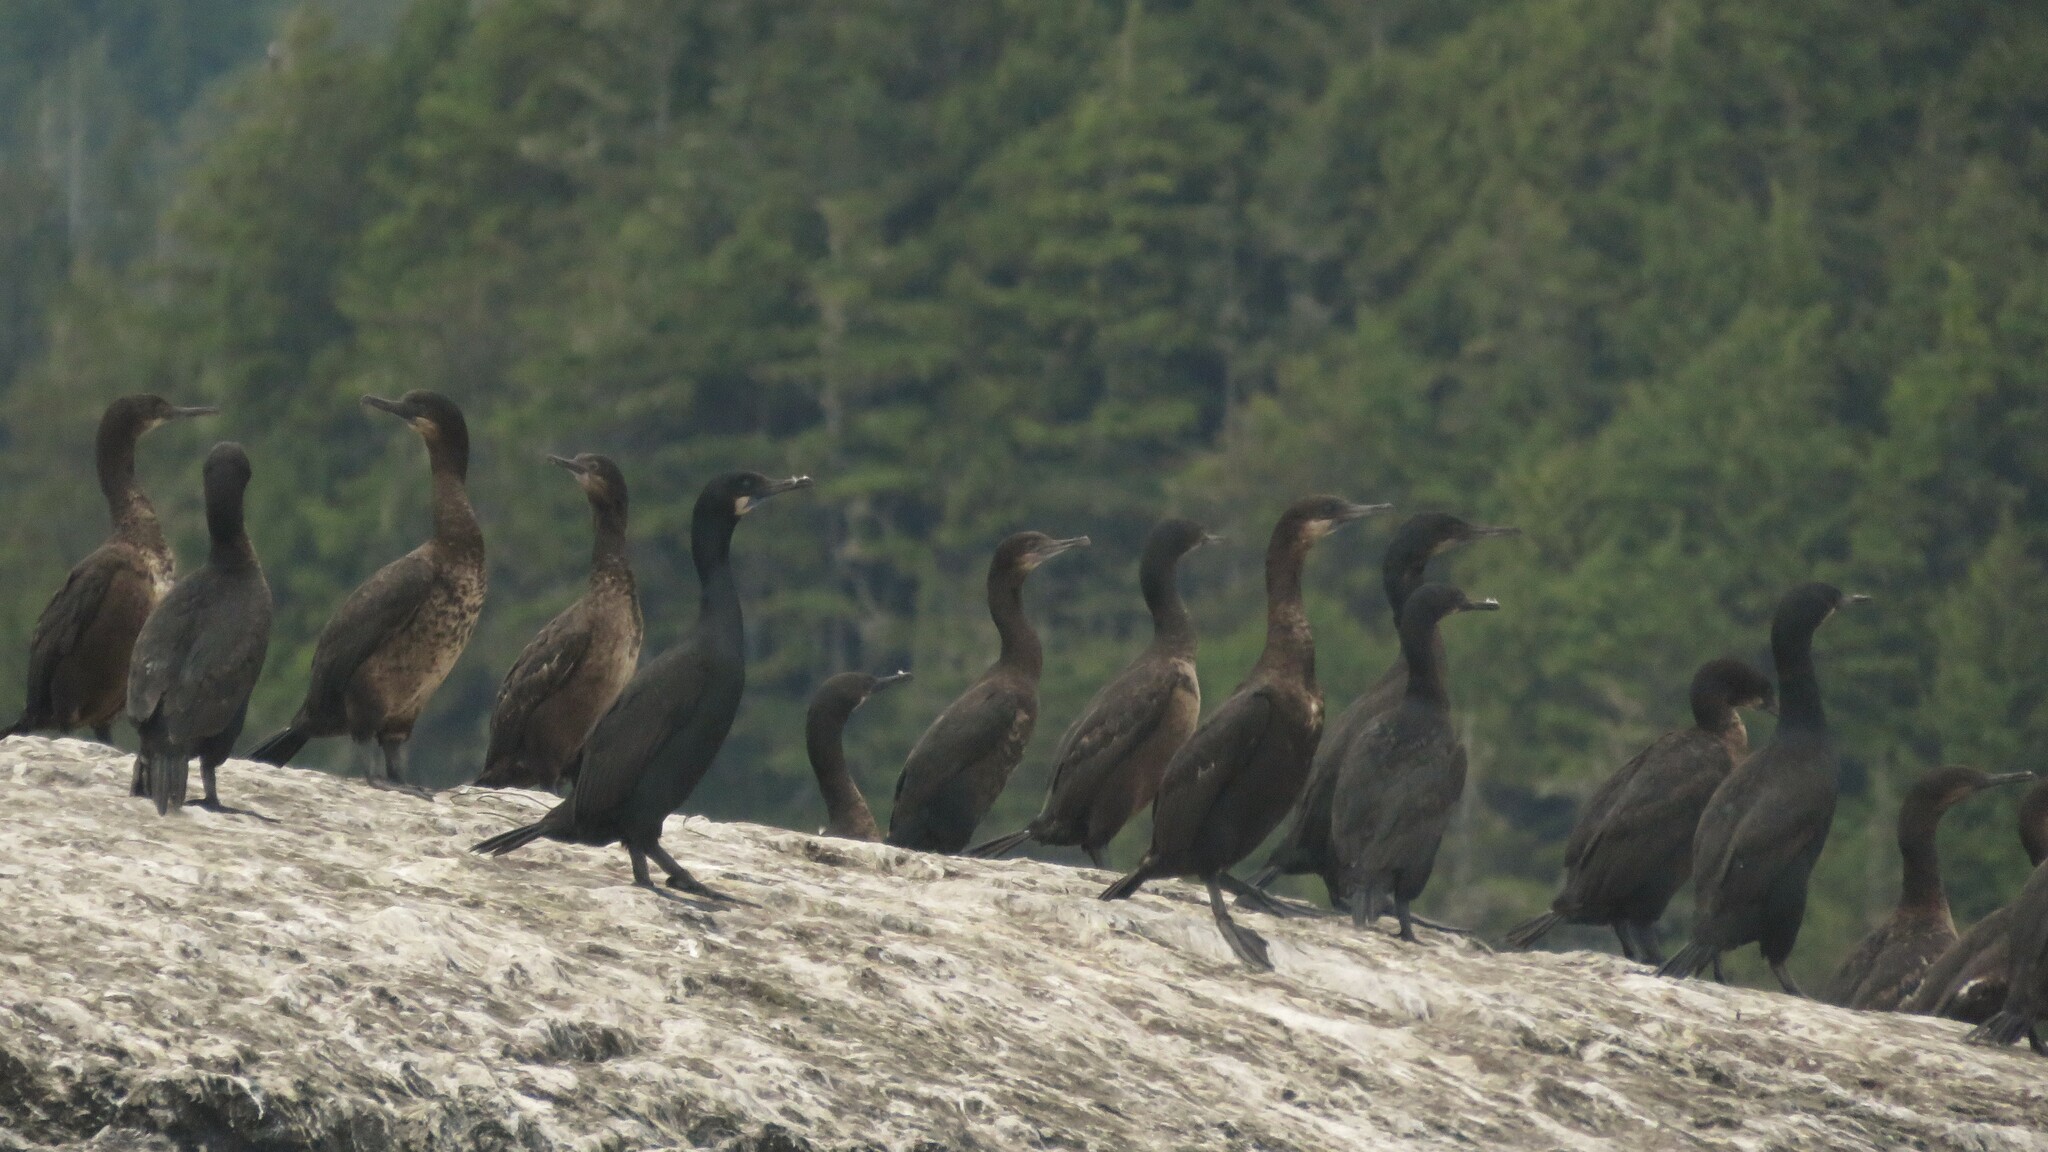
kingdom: Animalia
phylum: Chordata
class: Aves
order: Suliformes
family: Phalacrocoracidae
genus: Urile
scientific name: Urile penicillatus
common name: Brandt's cormorant
